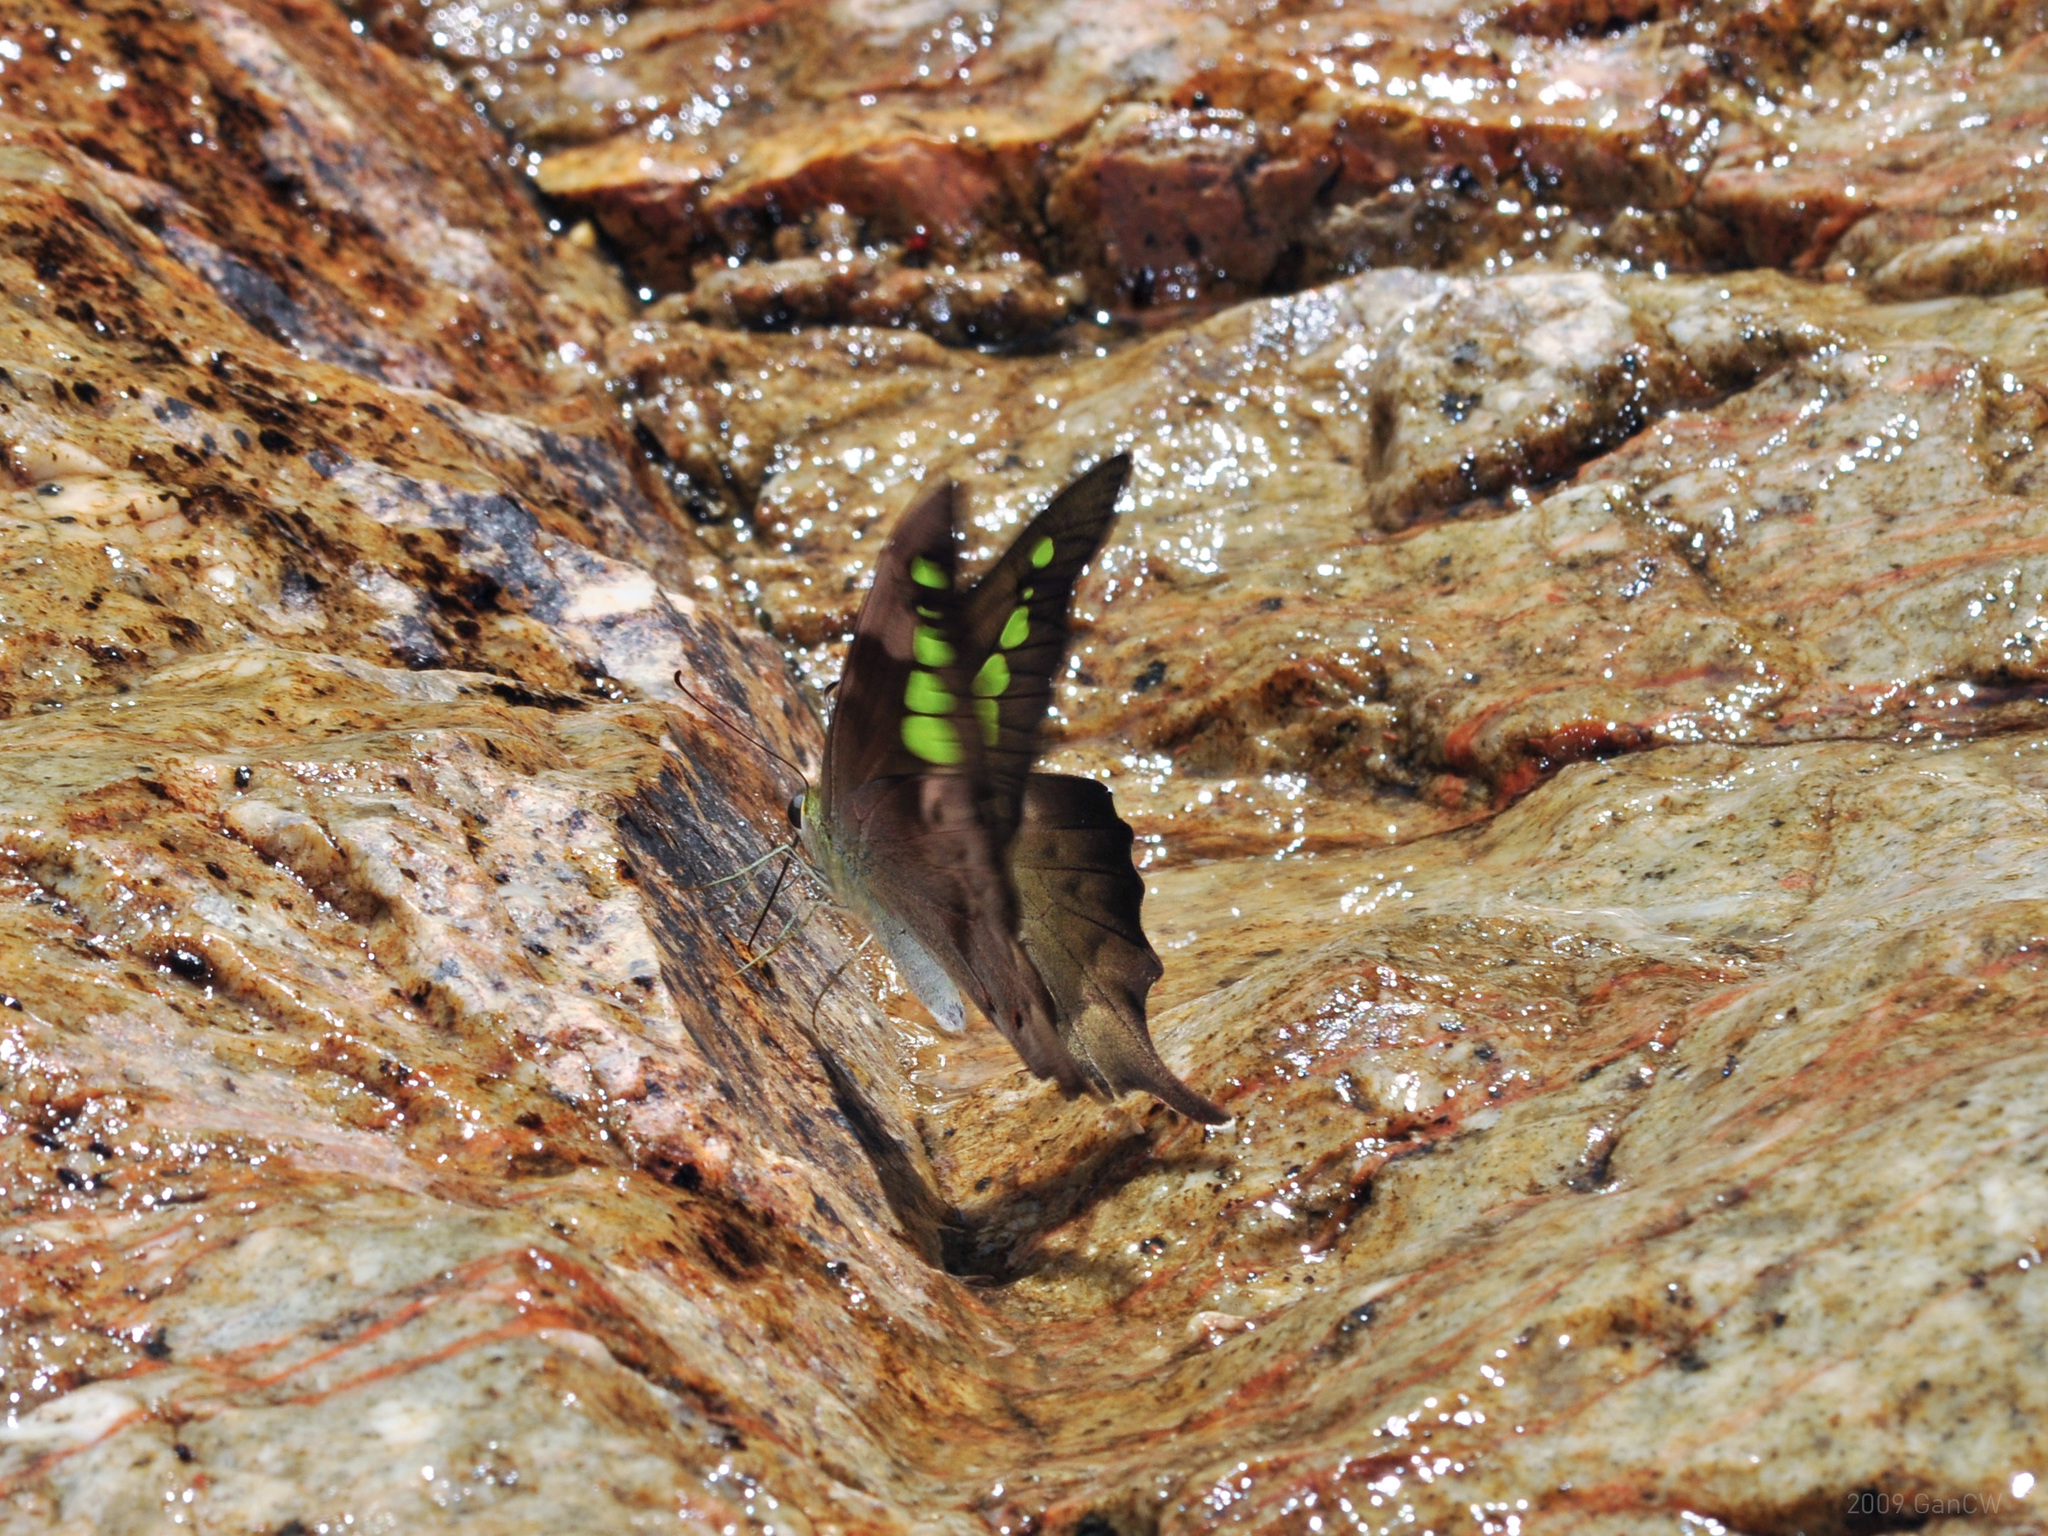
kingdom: Animalia
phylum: Arthropoda
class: Insecta
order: Lepidoptera
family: Papilionidae
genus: Graphium
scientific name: Graphium empedovana
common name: Malayan yellowbottle
